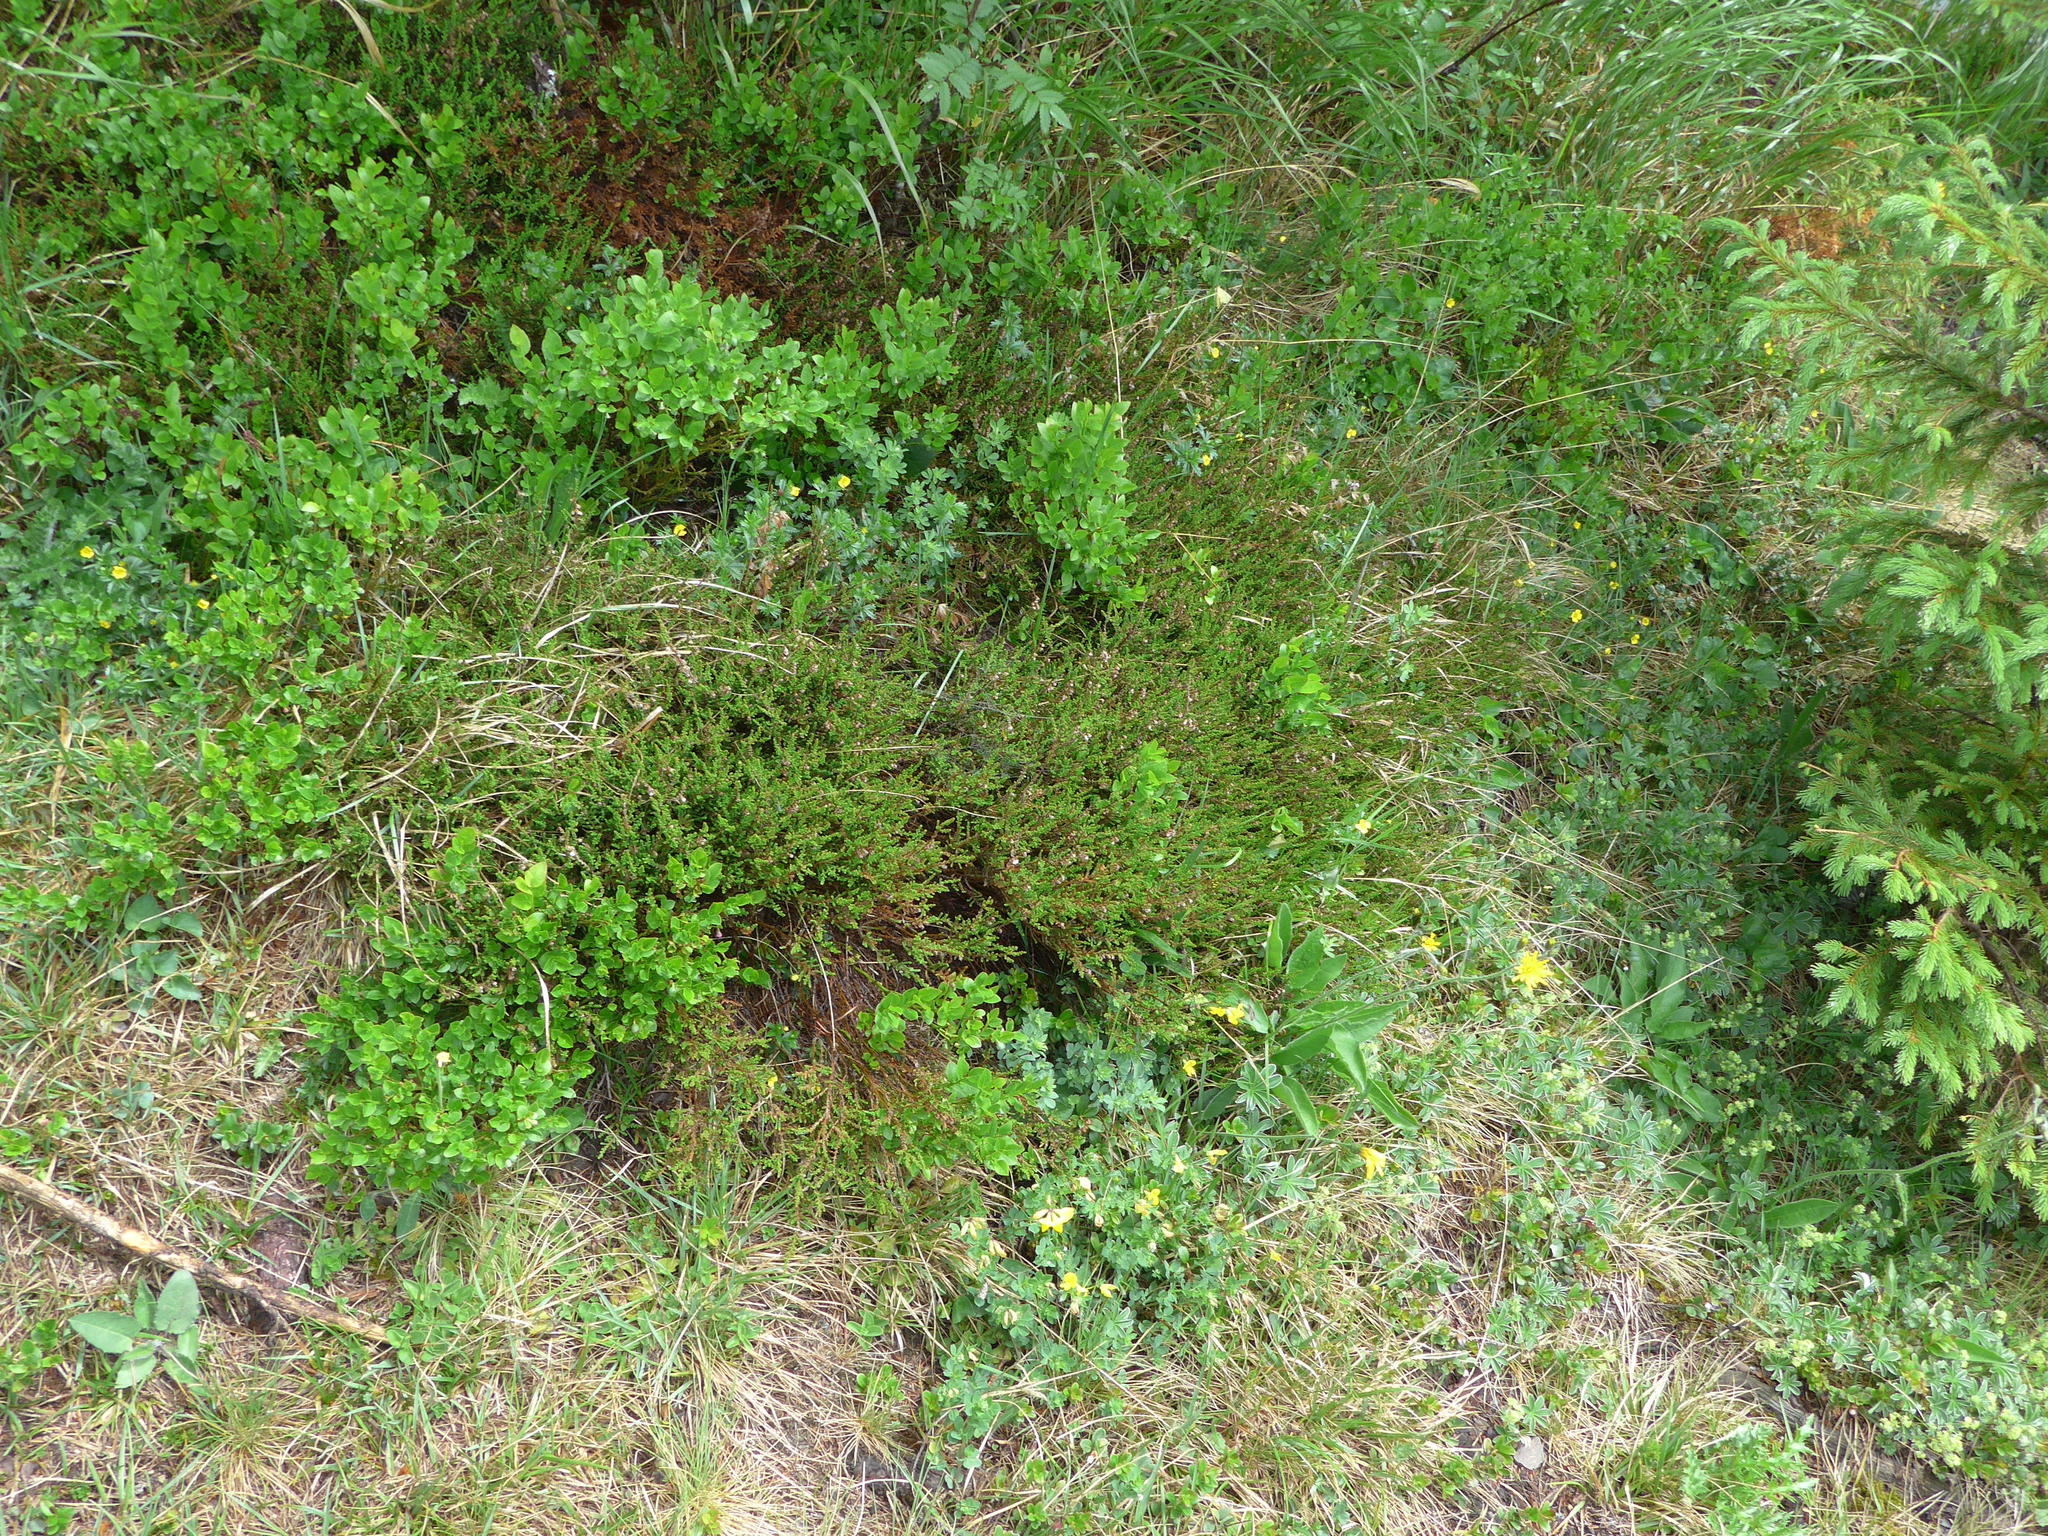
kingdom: Plantae
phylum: Tracheophyta
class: Magnoliopsida
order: Ericales
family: Ericaceae
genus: Calluna
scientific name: Calluna vulgaris
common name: Heather
